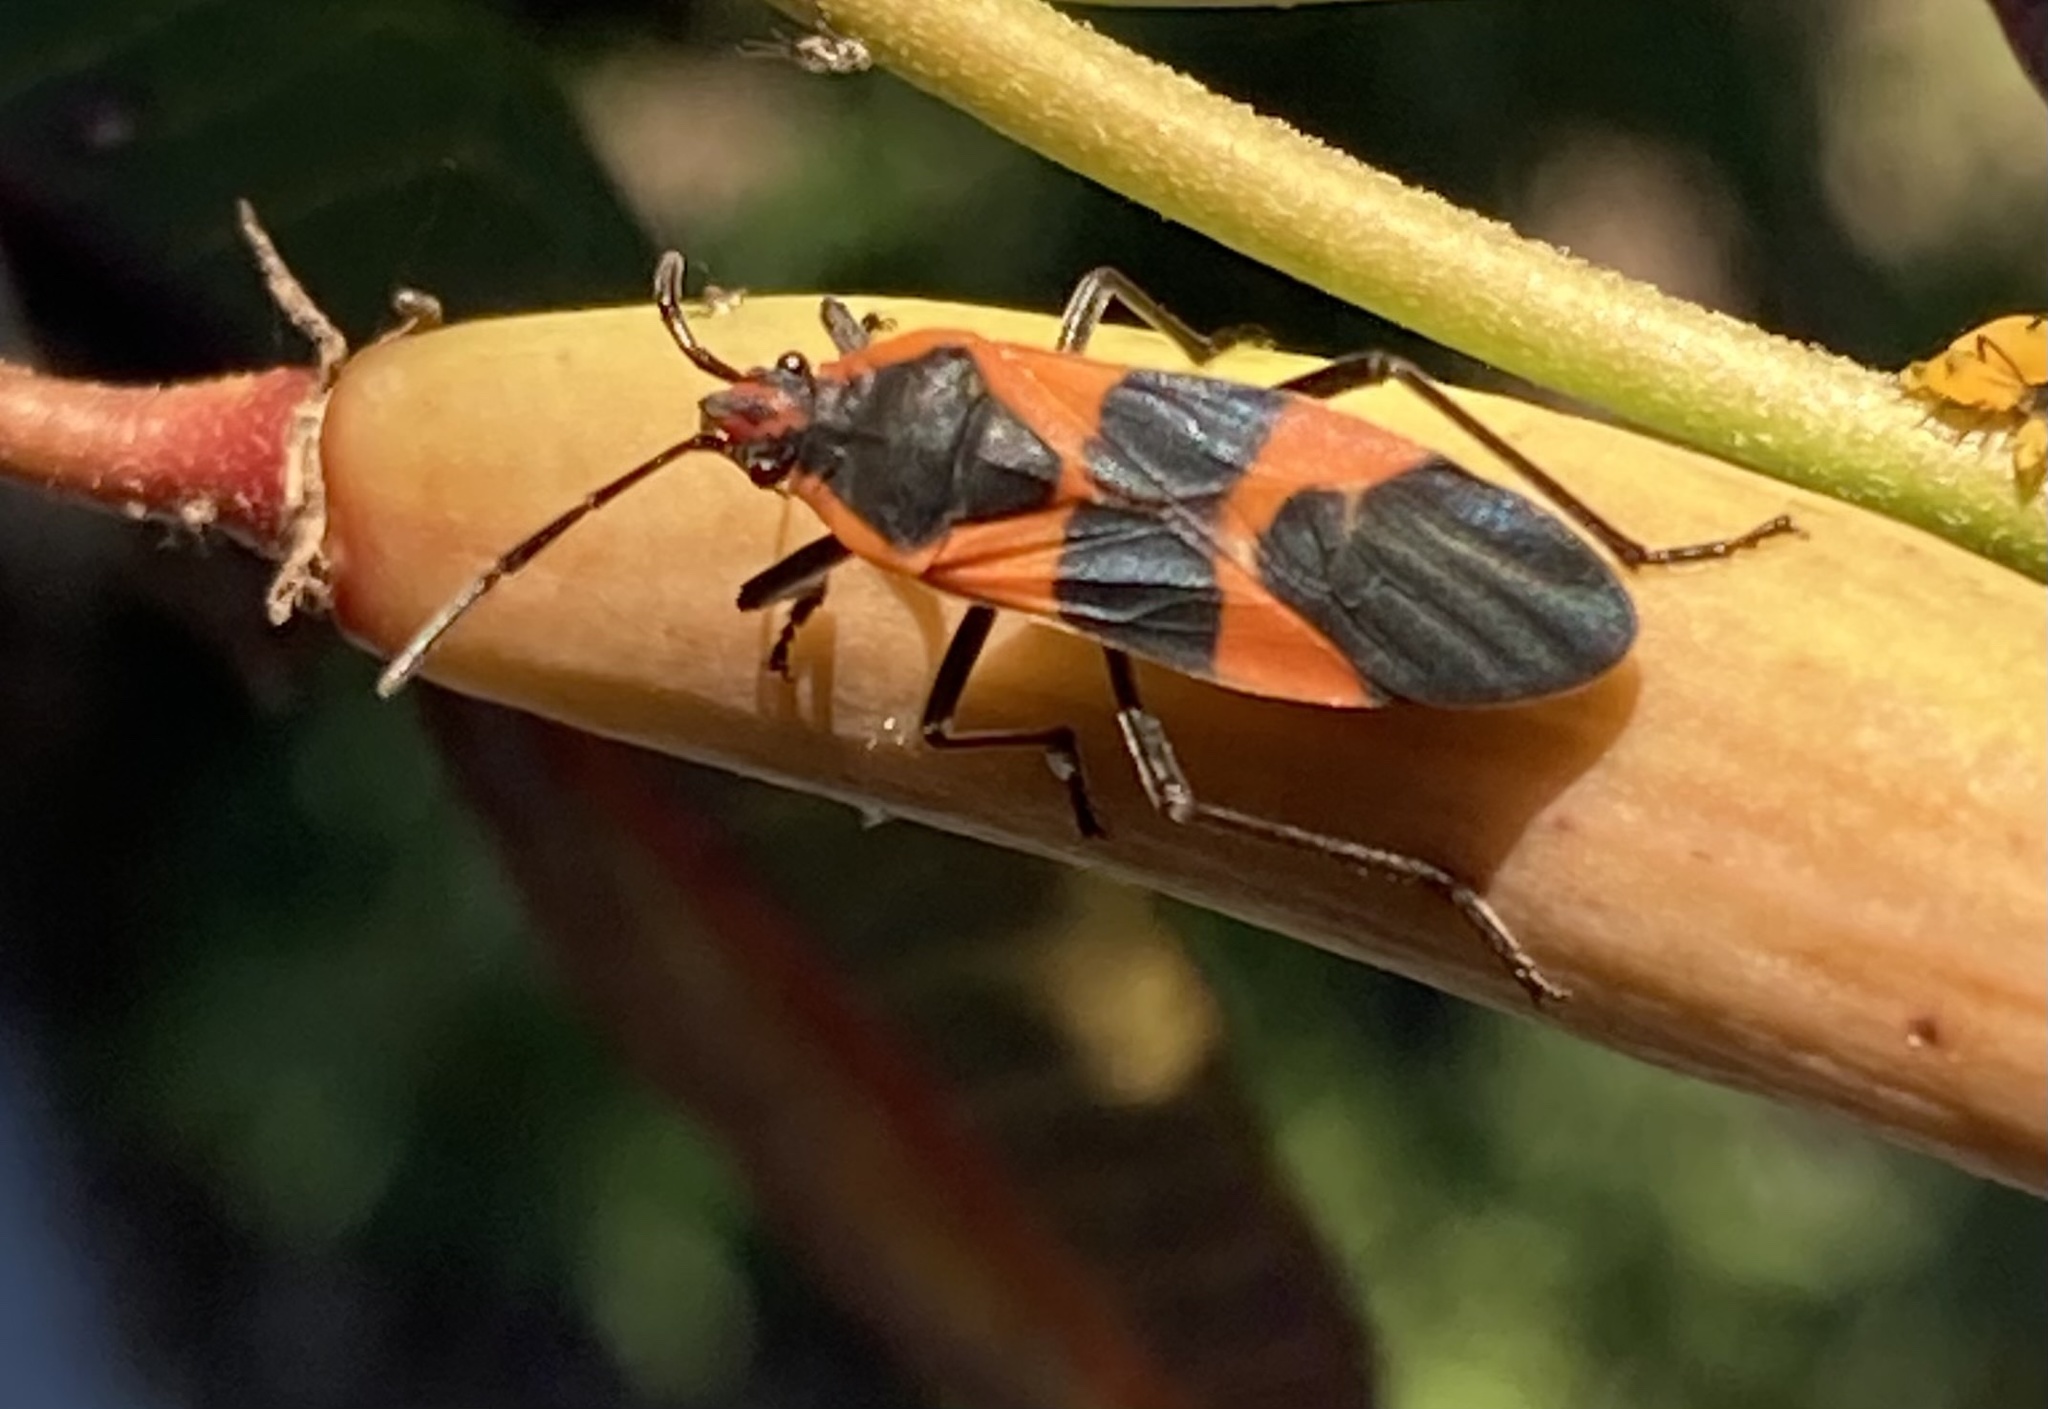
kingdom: Animalia
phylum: Arthropoda
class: Insecta
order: Hemiptera
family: Lygaeidae
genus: Oncopeltus
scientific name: Oncopeltus fasciatus
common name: Large milkweed bug
